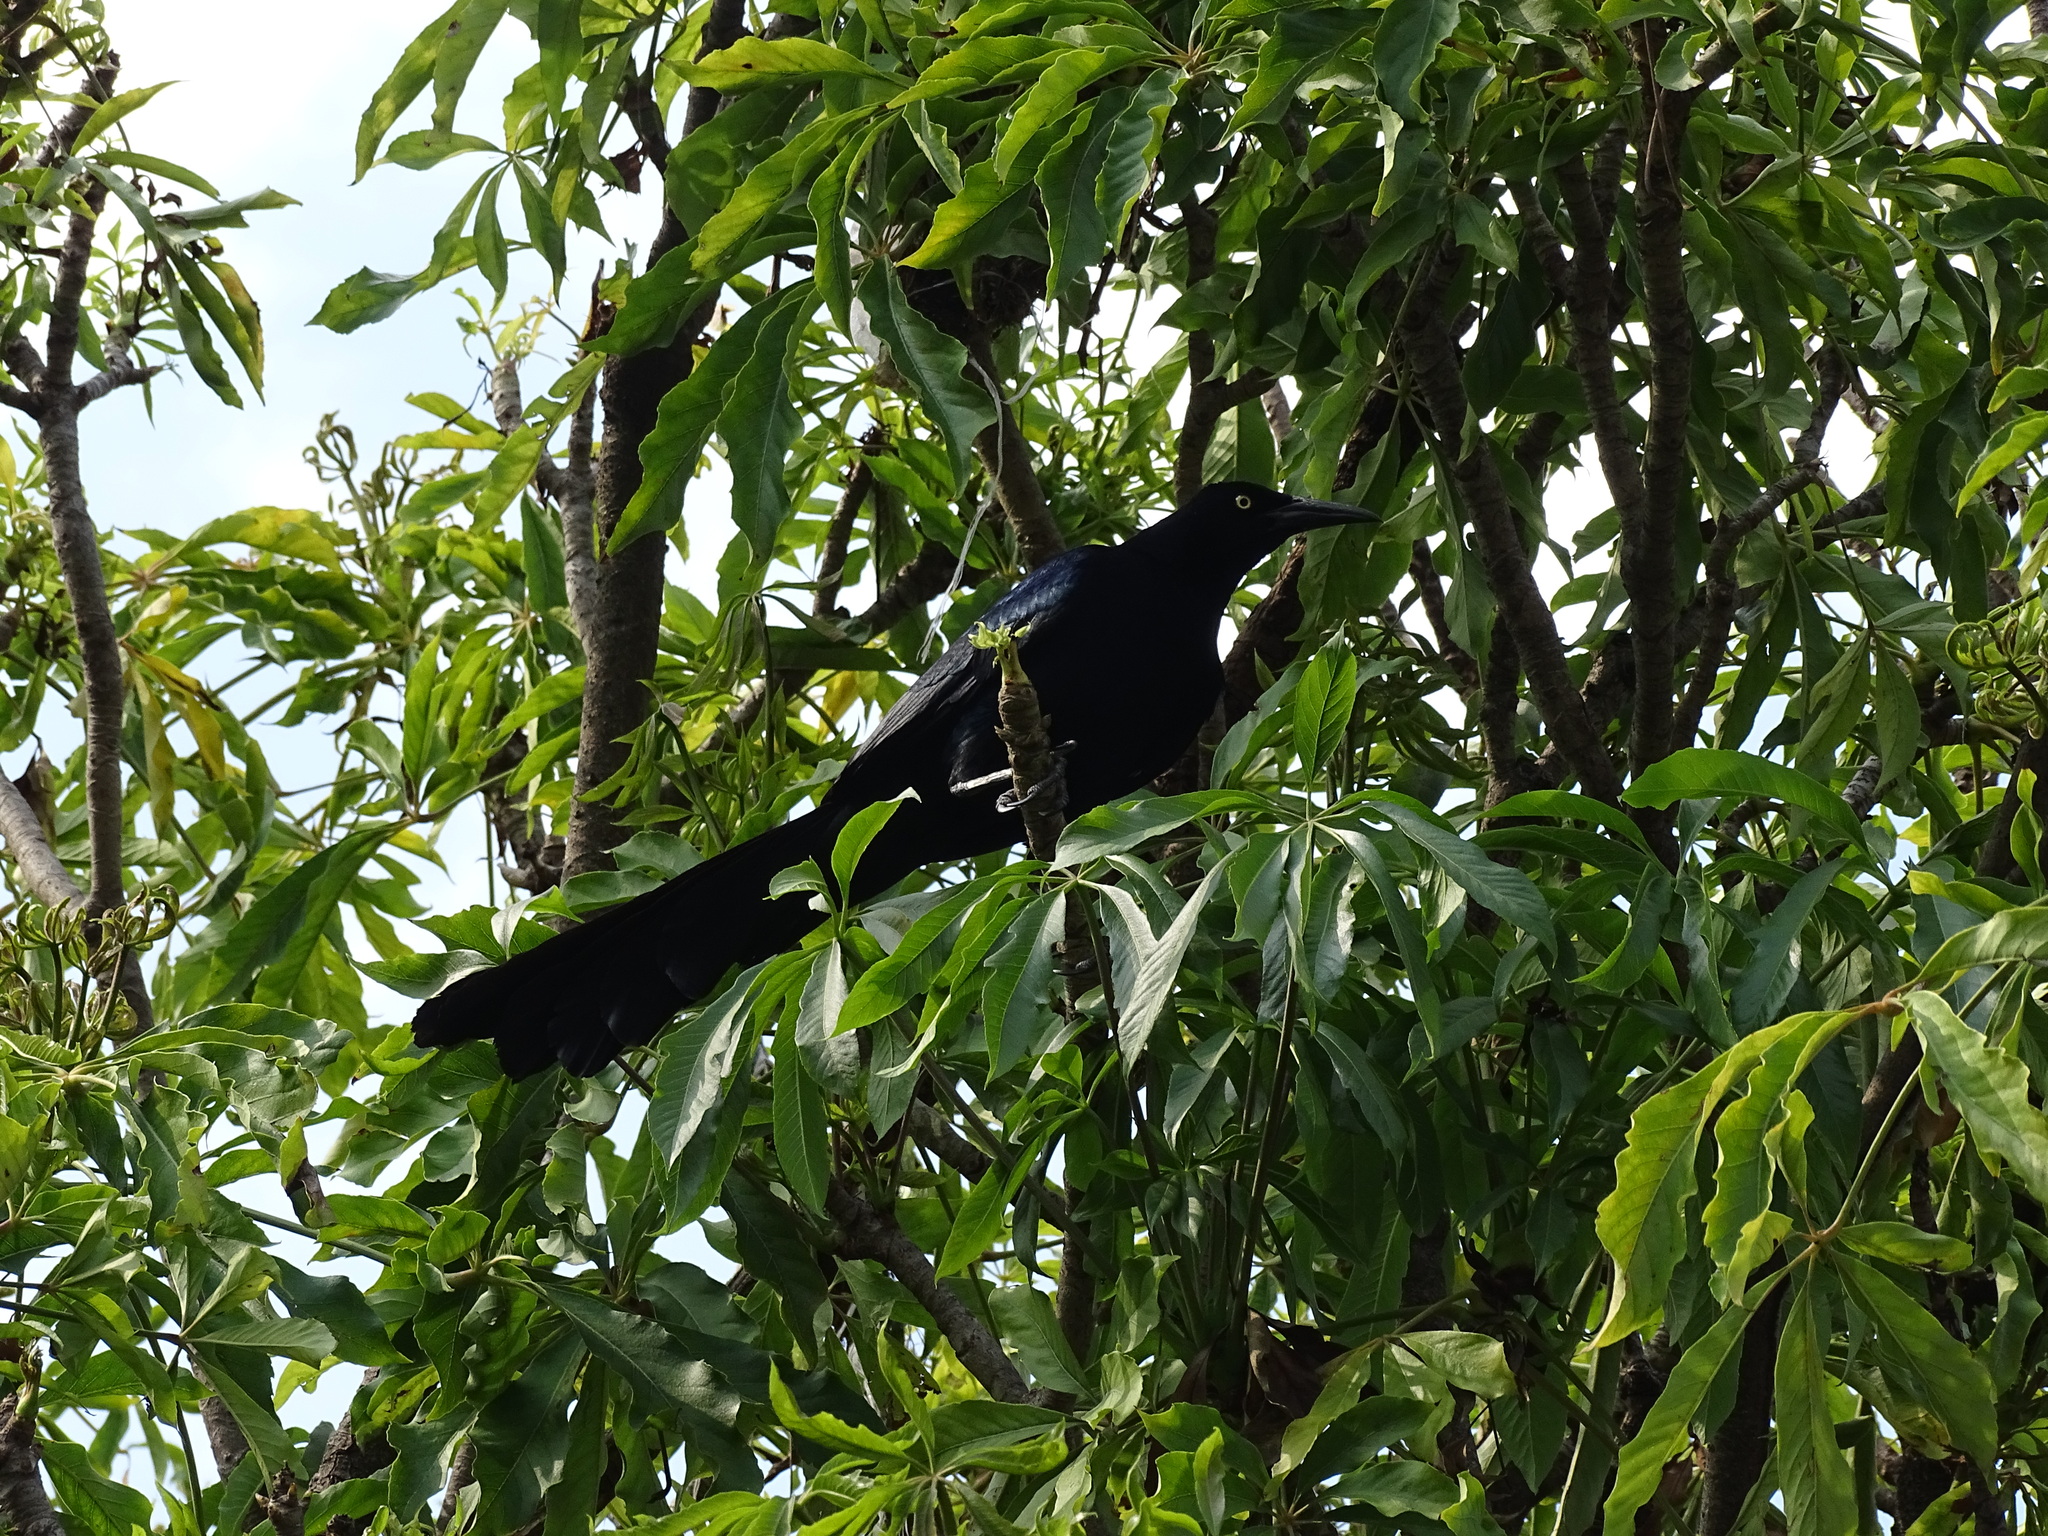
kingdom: Animalia
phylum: Chordata
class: Aves
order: Passeriformes
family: Icteridae
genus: Quiscalus
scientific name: Quiscalus mexicanus
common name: Great-tailed grackle
